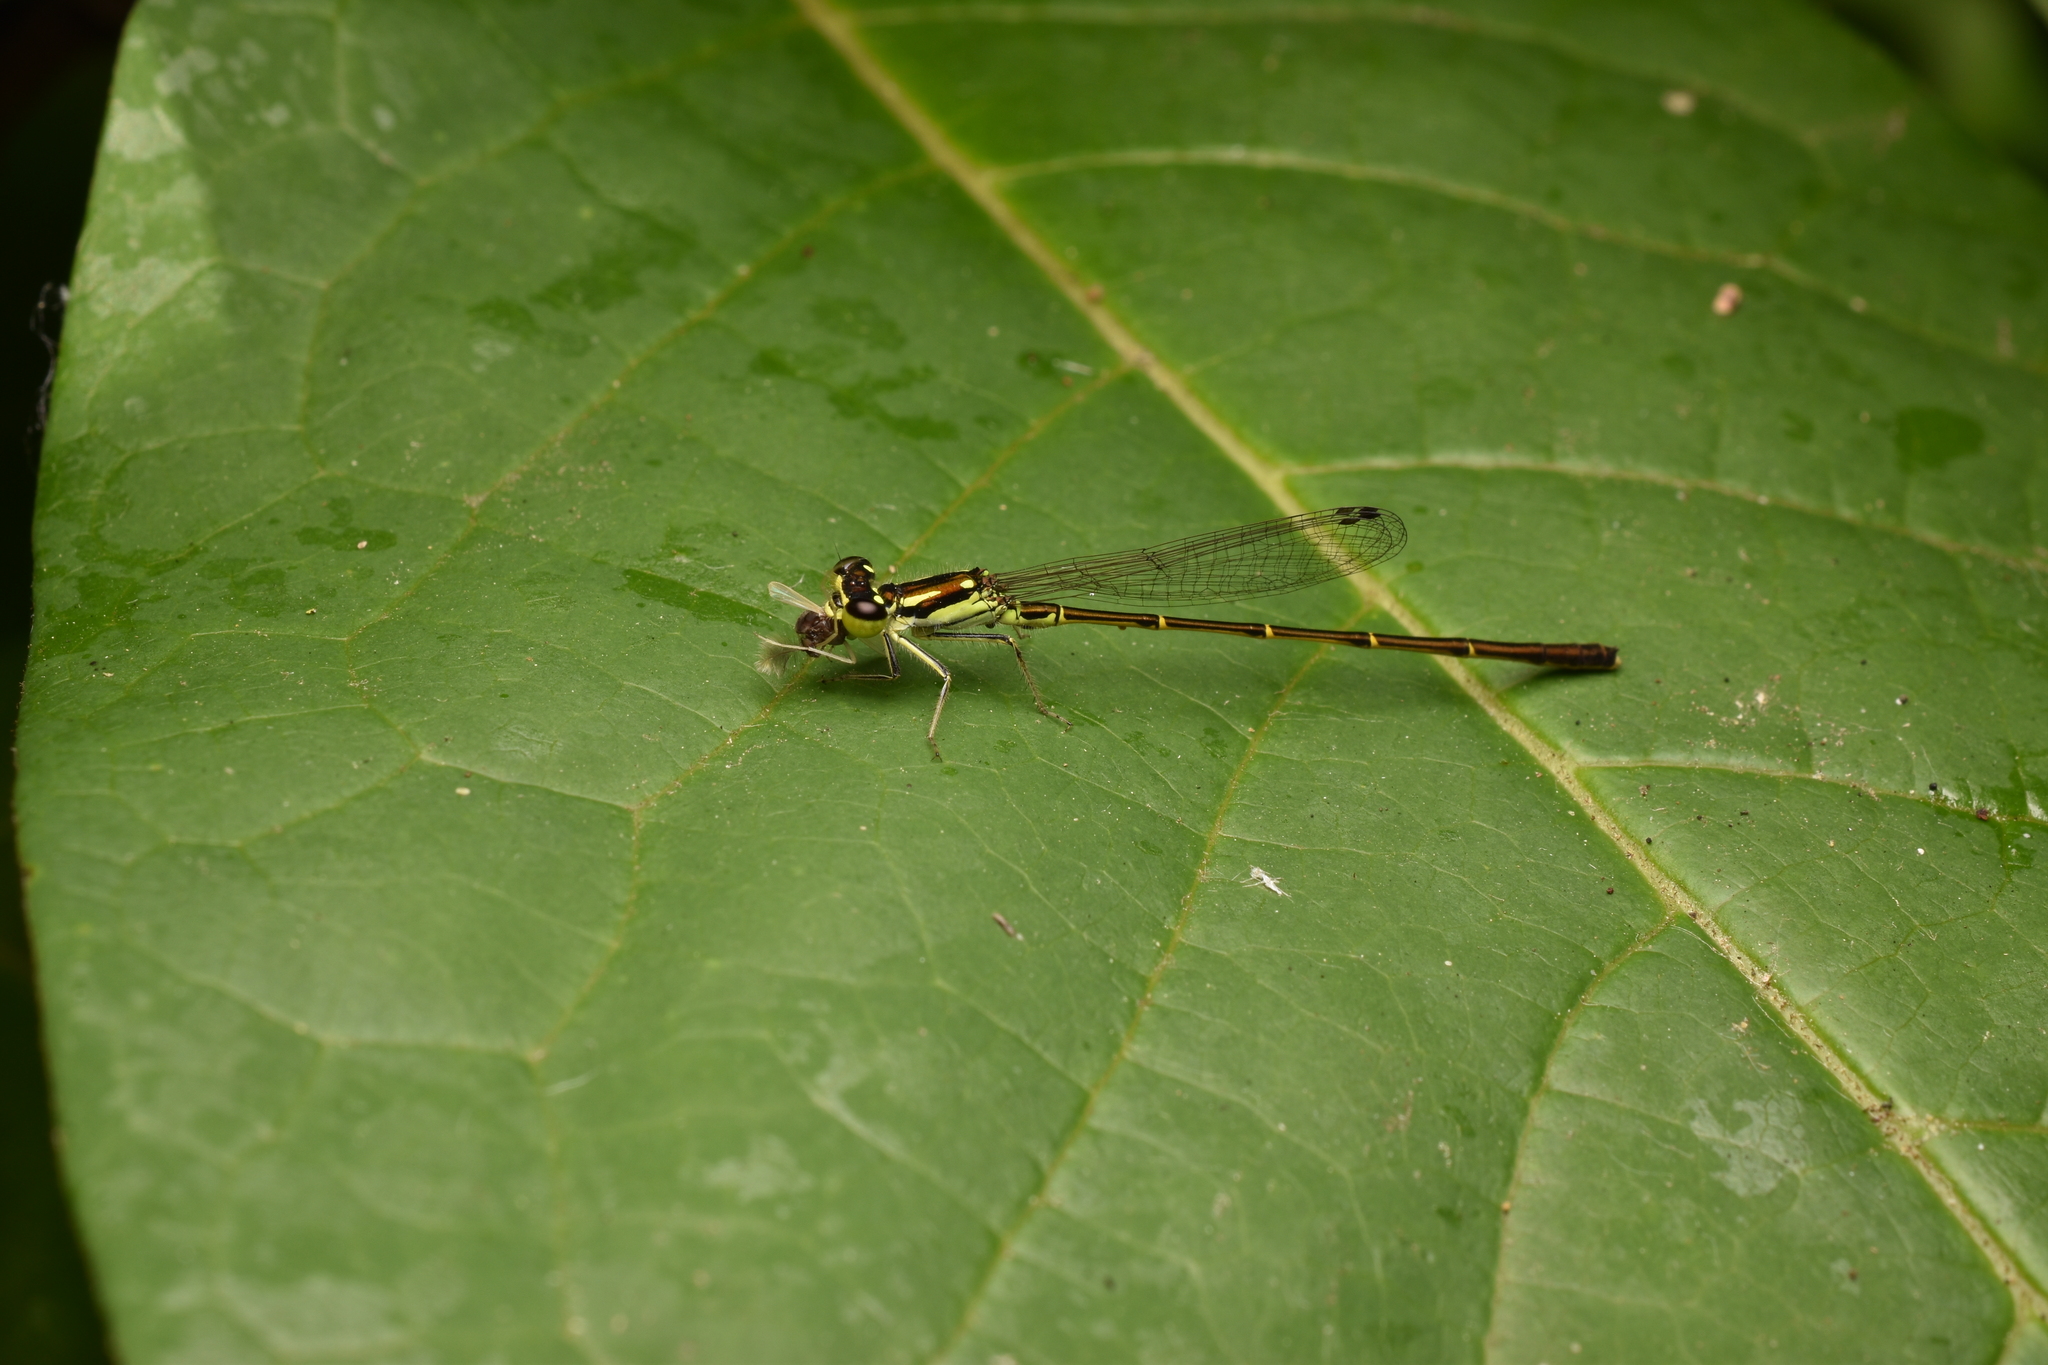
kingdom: Animalia
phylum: Arthropoda
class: Insecta
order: Odonata
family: Coenagrionidae
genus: Ischnura
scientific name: Ischnura posita
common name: Fragile forktail
